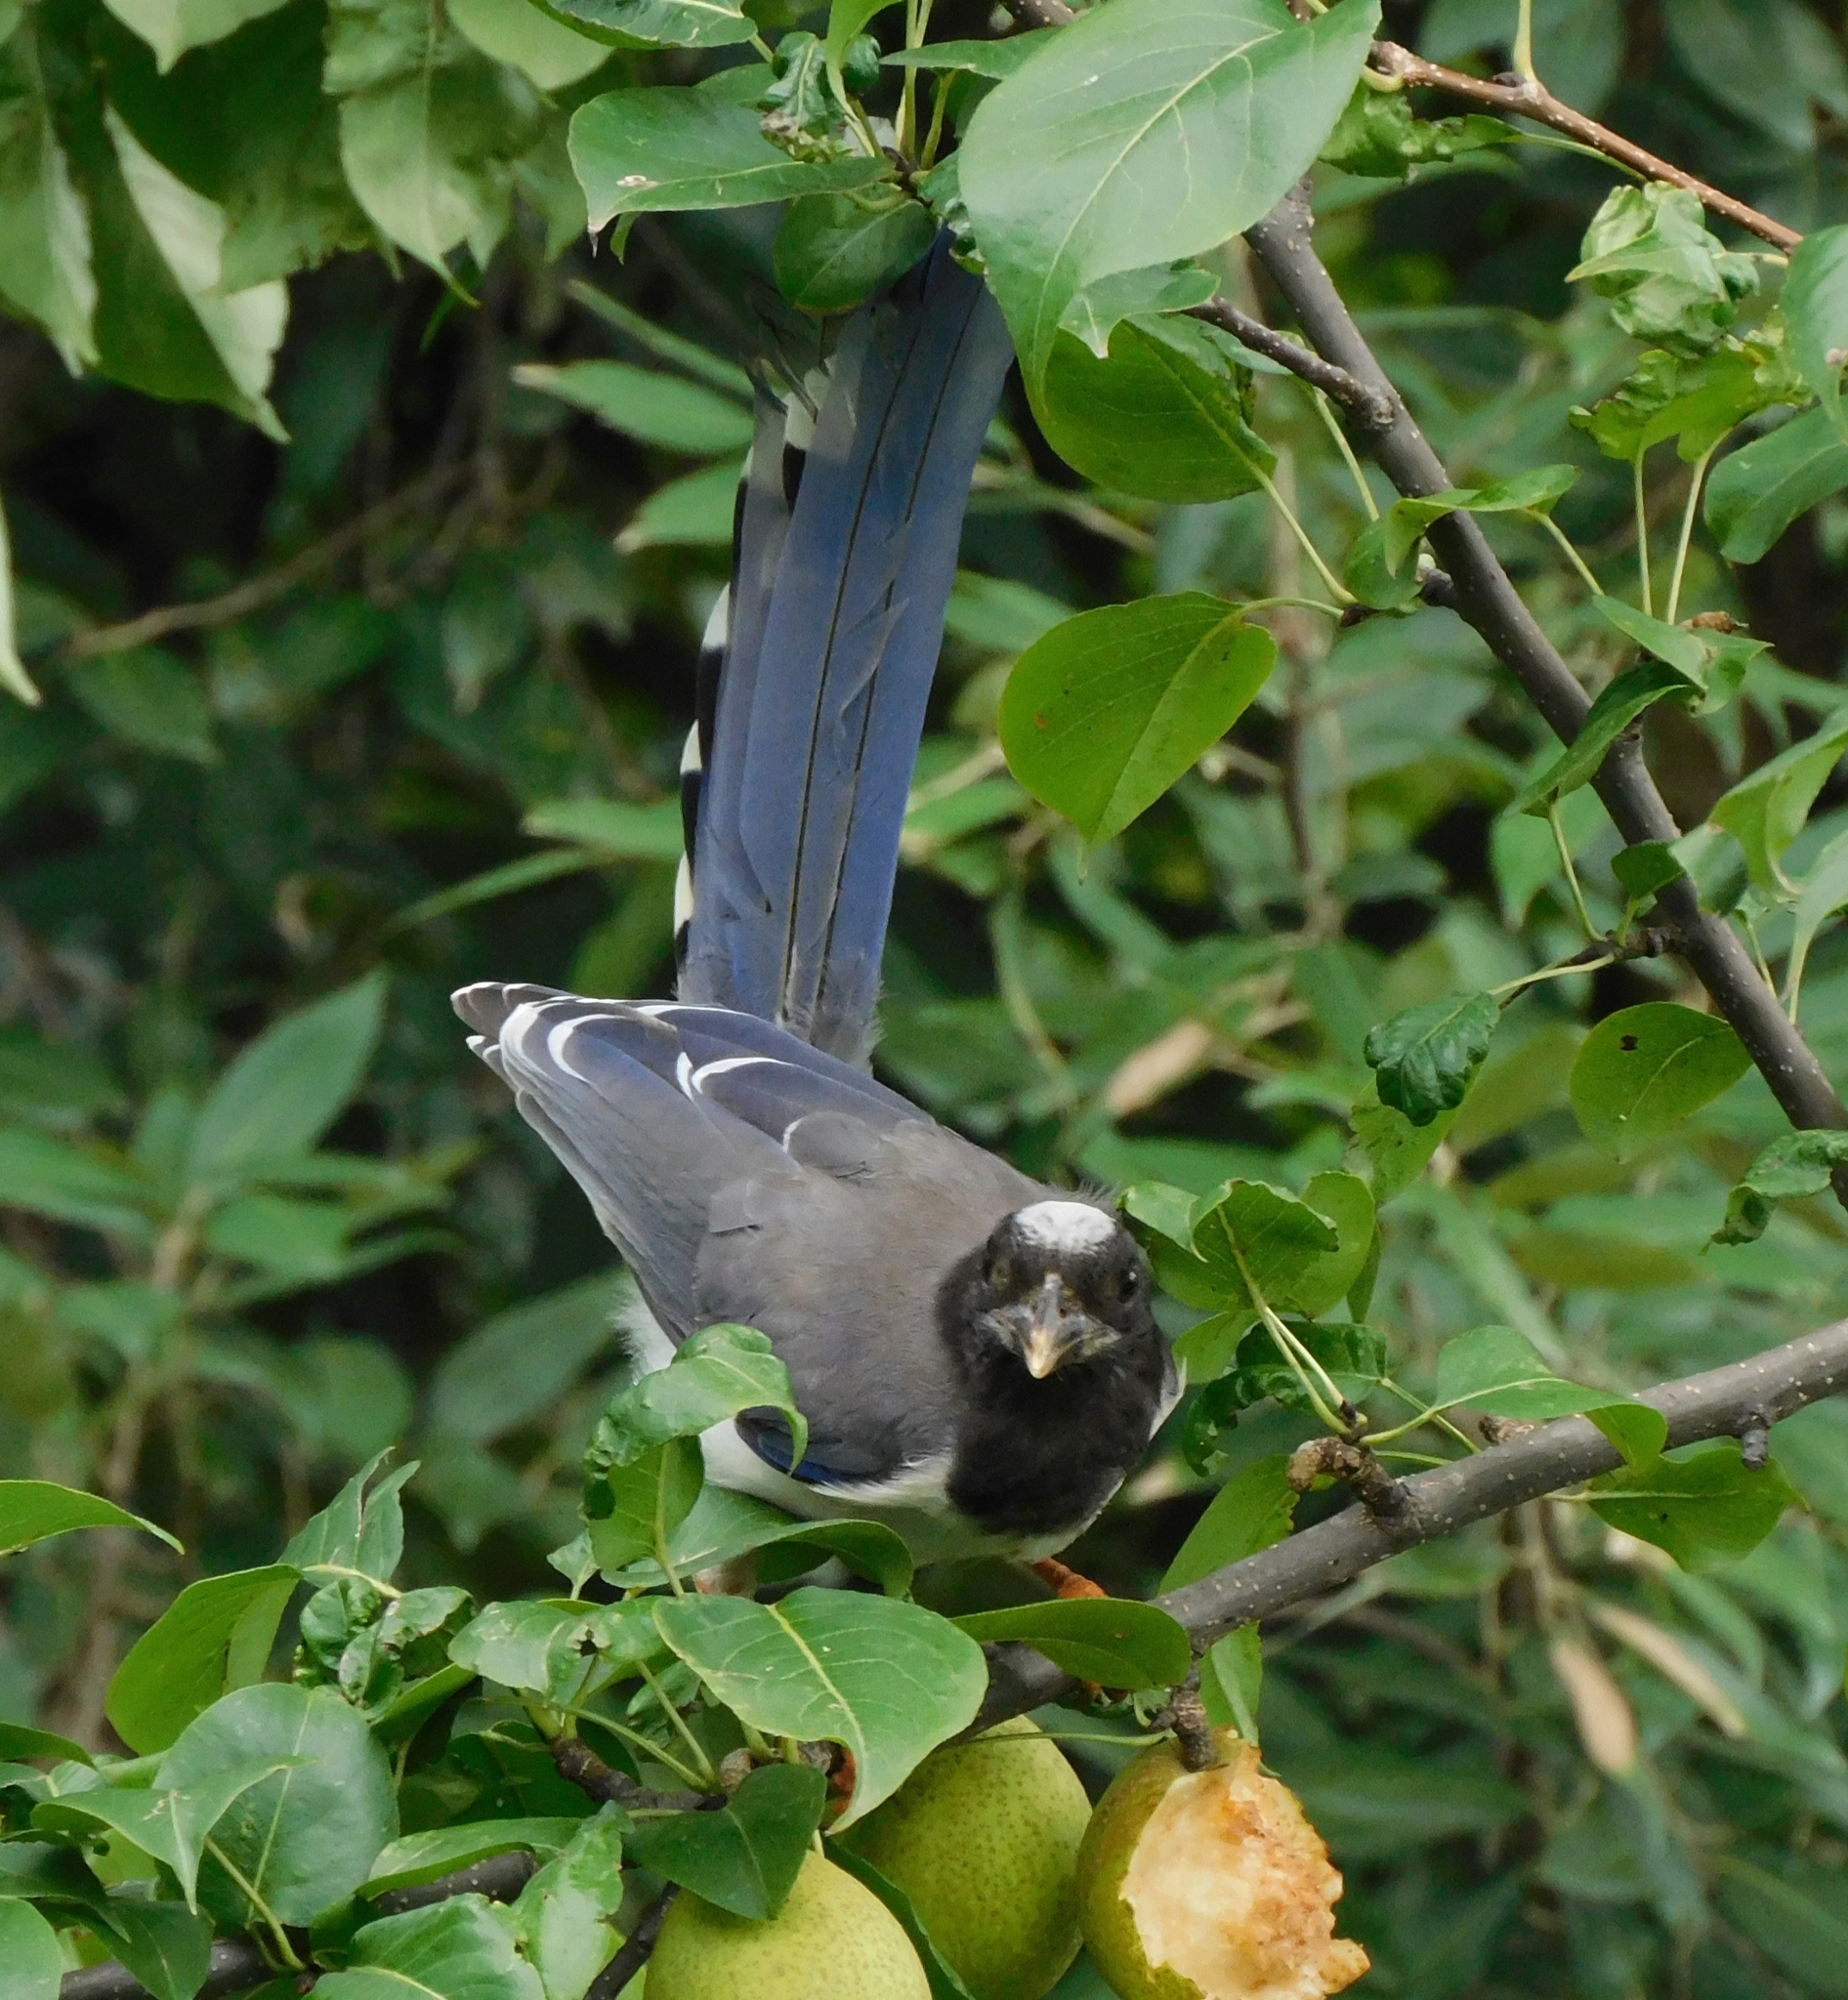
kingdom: Animalia
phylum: Chordata
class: Aves
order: Passeriformes
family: Corvidae
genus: Urocissa
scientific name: Urocissa erythroryncha
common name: Red-billed blue magpie
